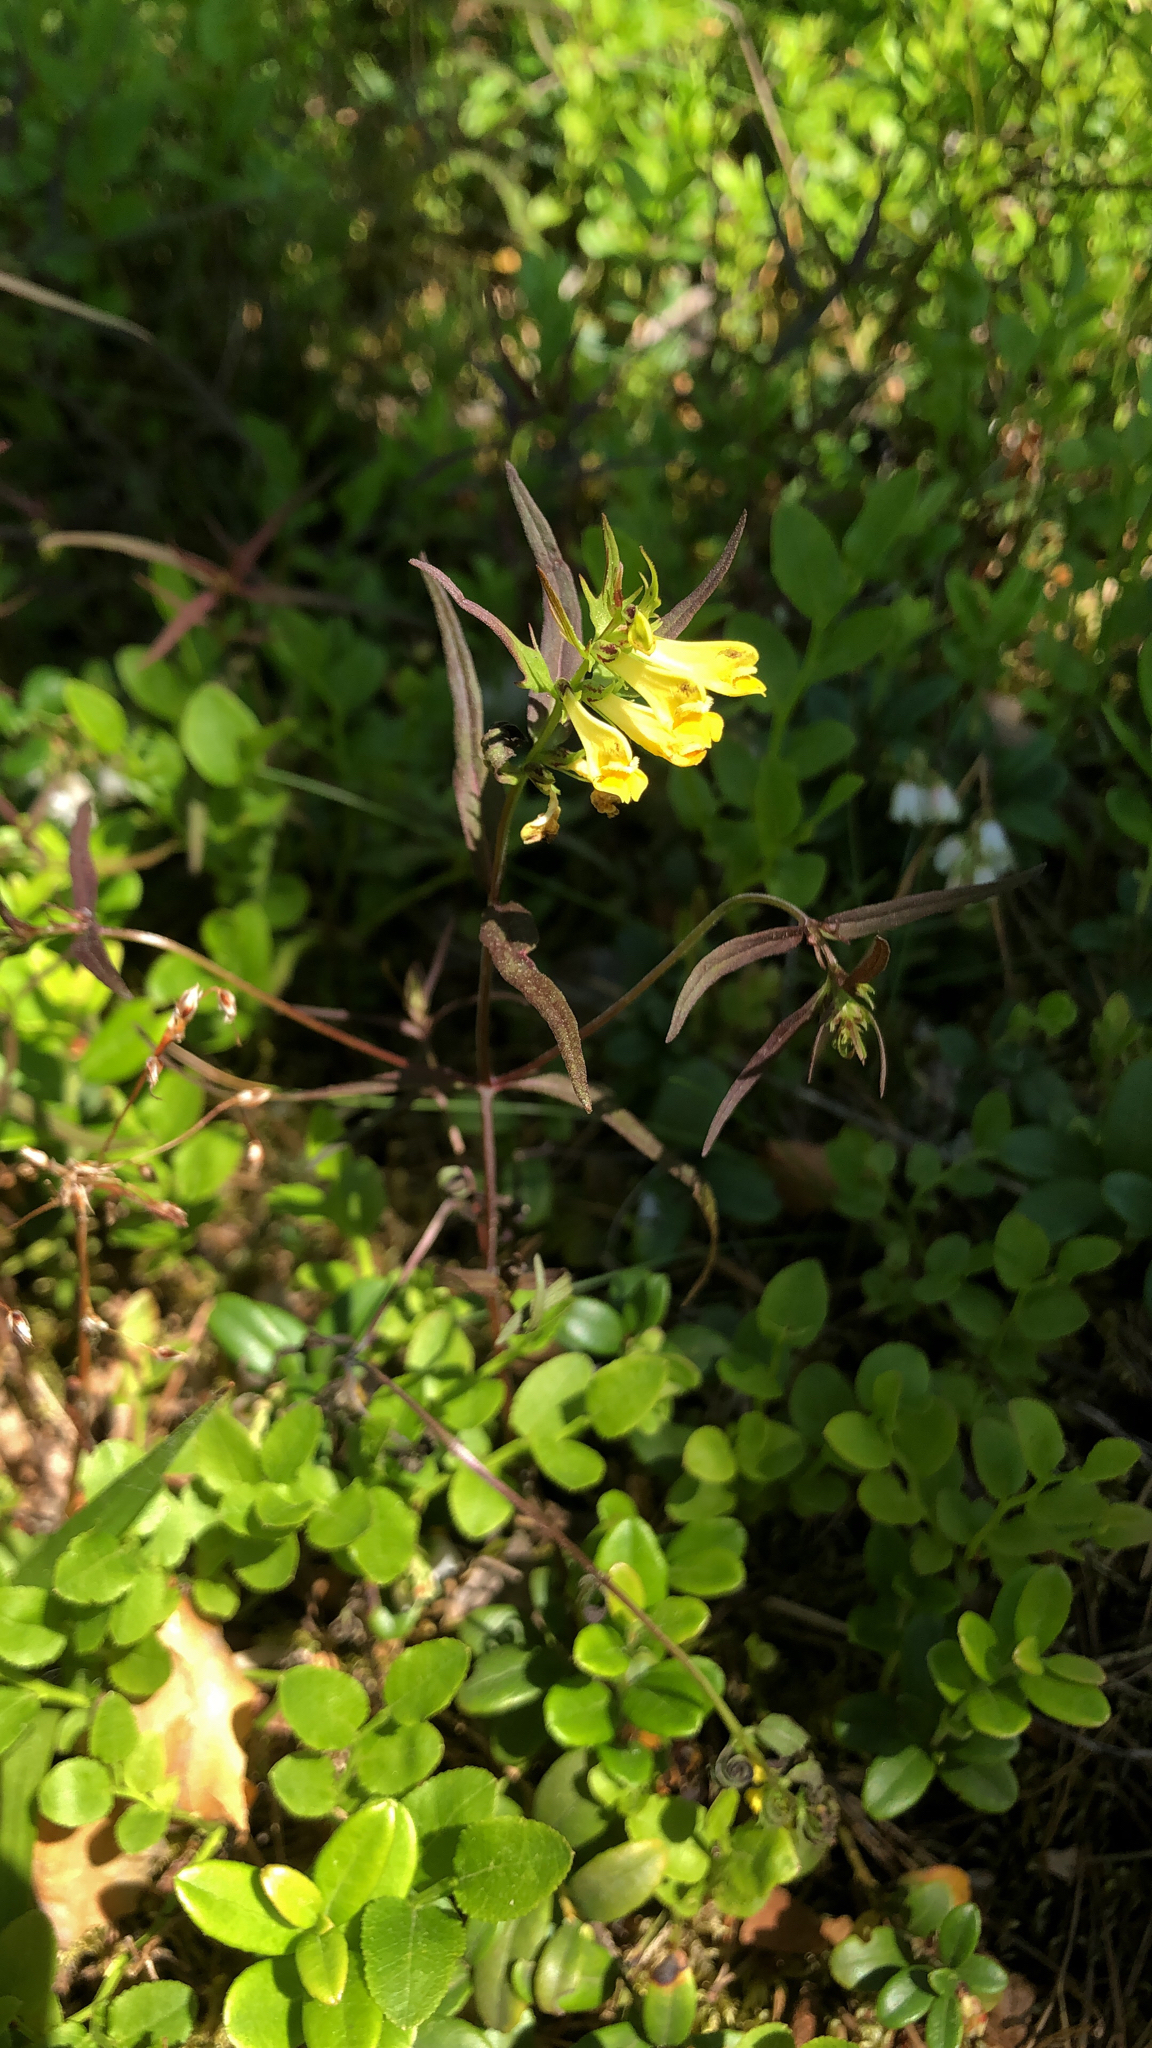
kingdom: Plantae
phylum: Tracheophyta
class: Magnoliopsida
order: Lamiales
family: Orobanchaceae
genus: Melampyrum
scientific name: Melampyrum pratense
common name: Common cow-wheat
